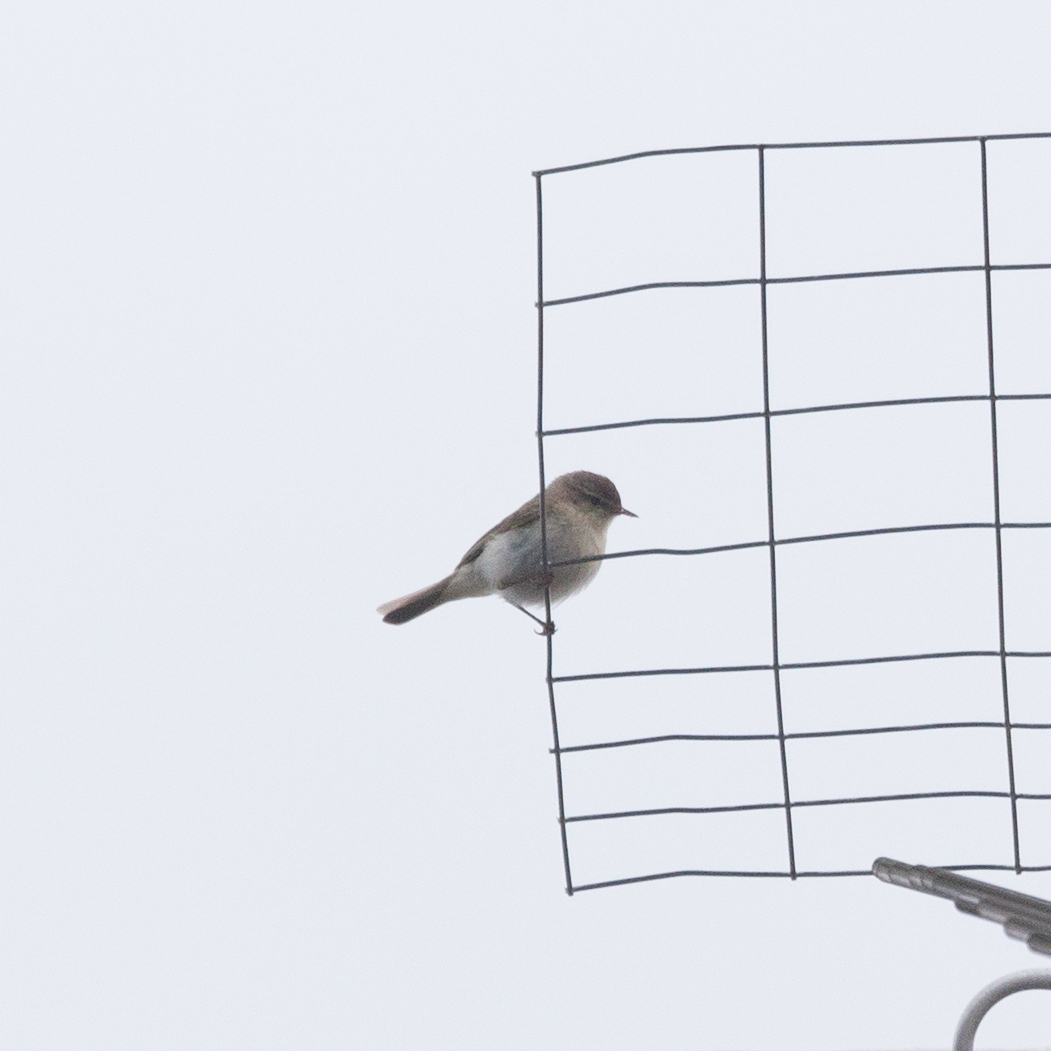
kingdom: Animalia
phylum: Chordata
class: Aves
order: Passeriformes
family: Phylloscopidae
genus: Phylloscopus
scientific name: Phylloscopus collybita
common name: Common chiffchaff
